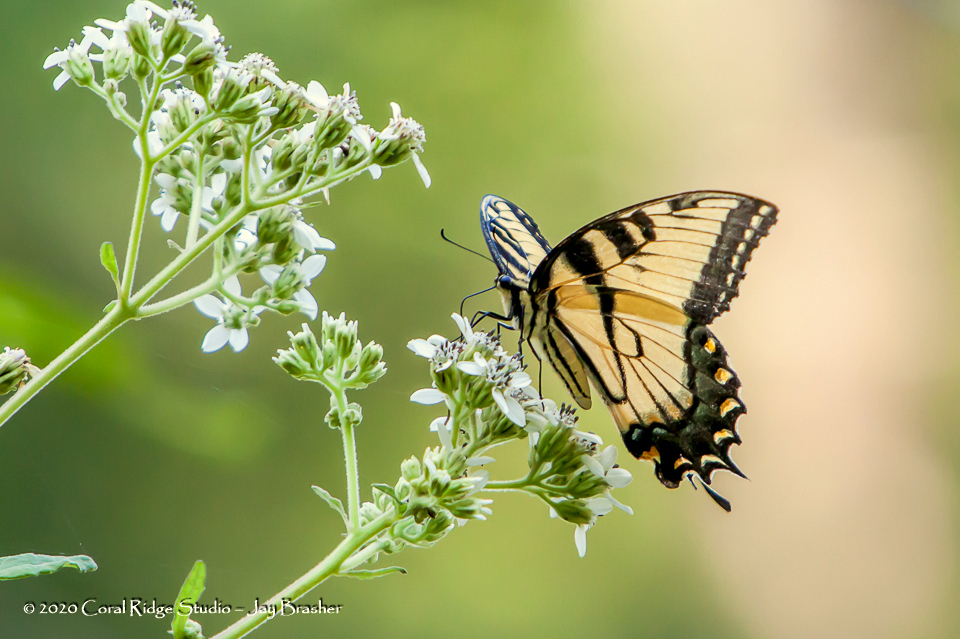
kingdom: Animalia
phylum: Arthropoda
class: Insecta
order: Lepidoptera
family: Papilionidae
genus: Papilio
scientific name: Papilio glaucus
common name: Tiger swallowtail
